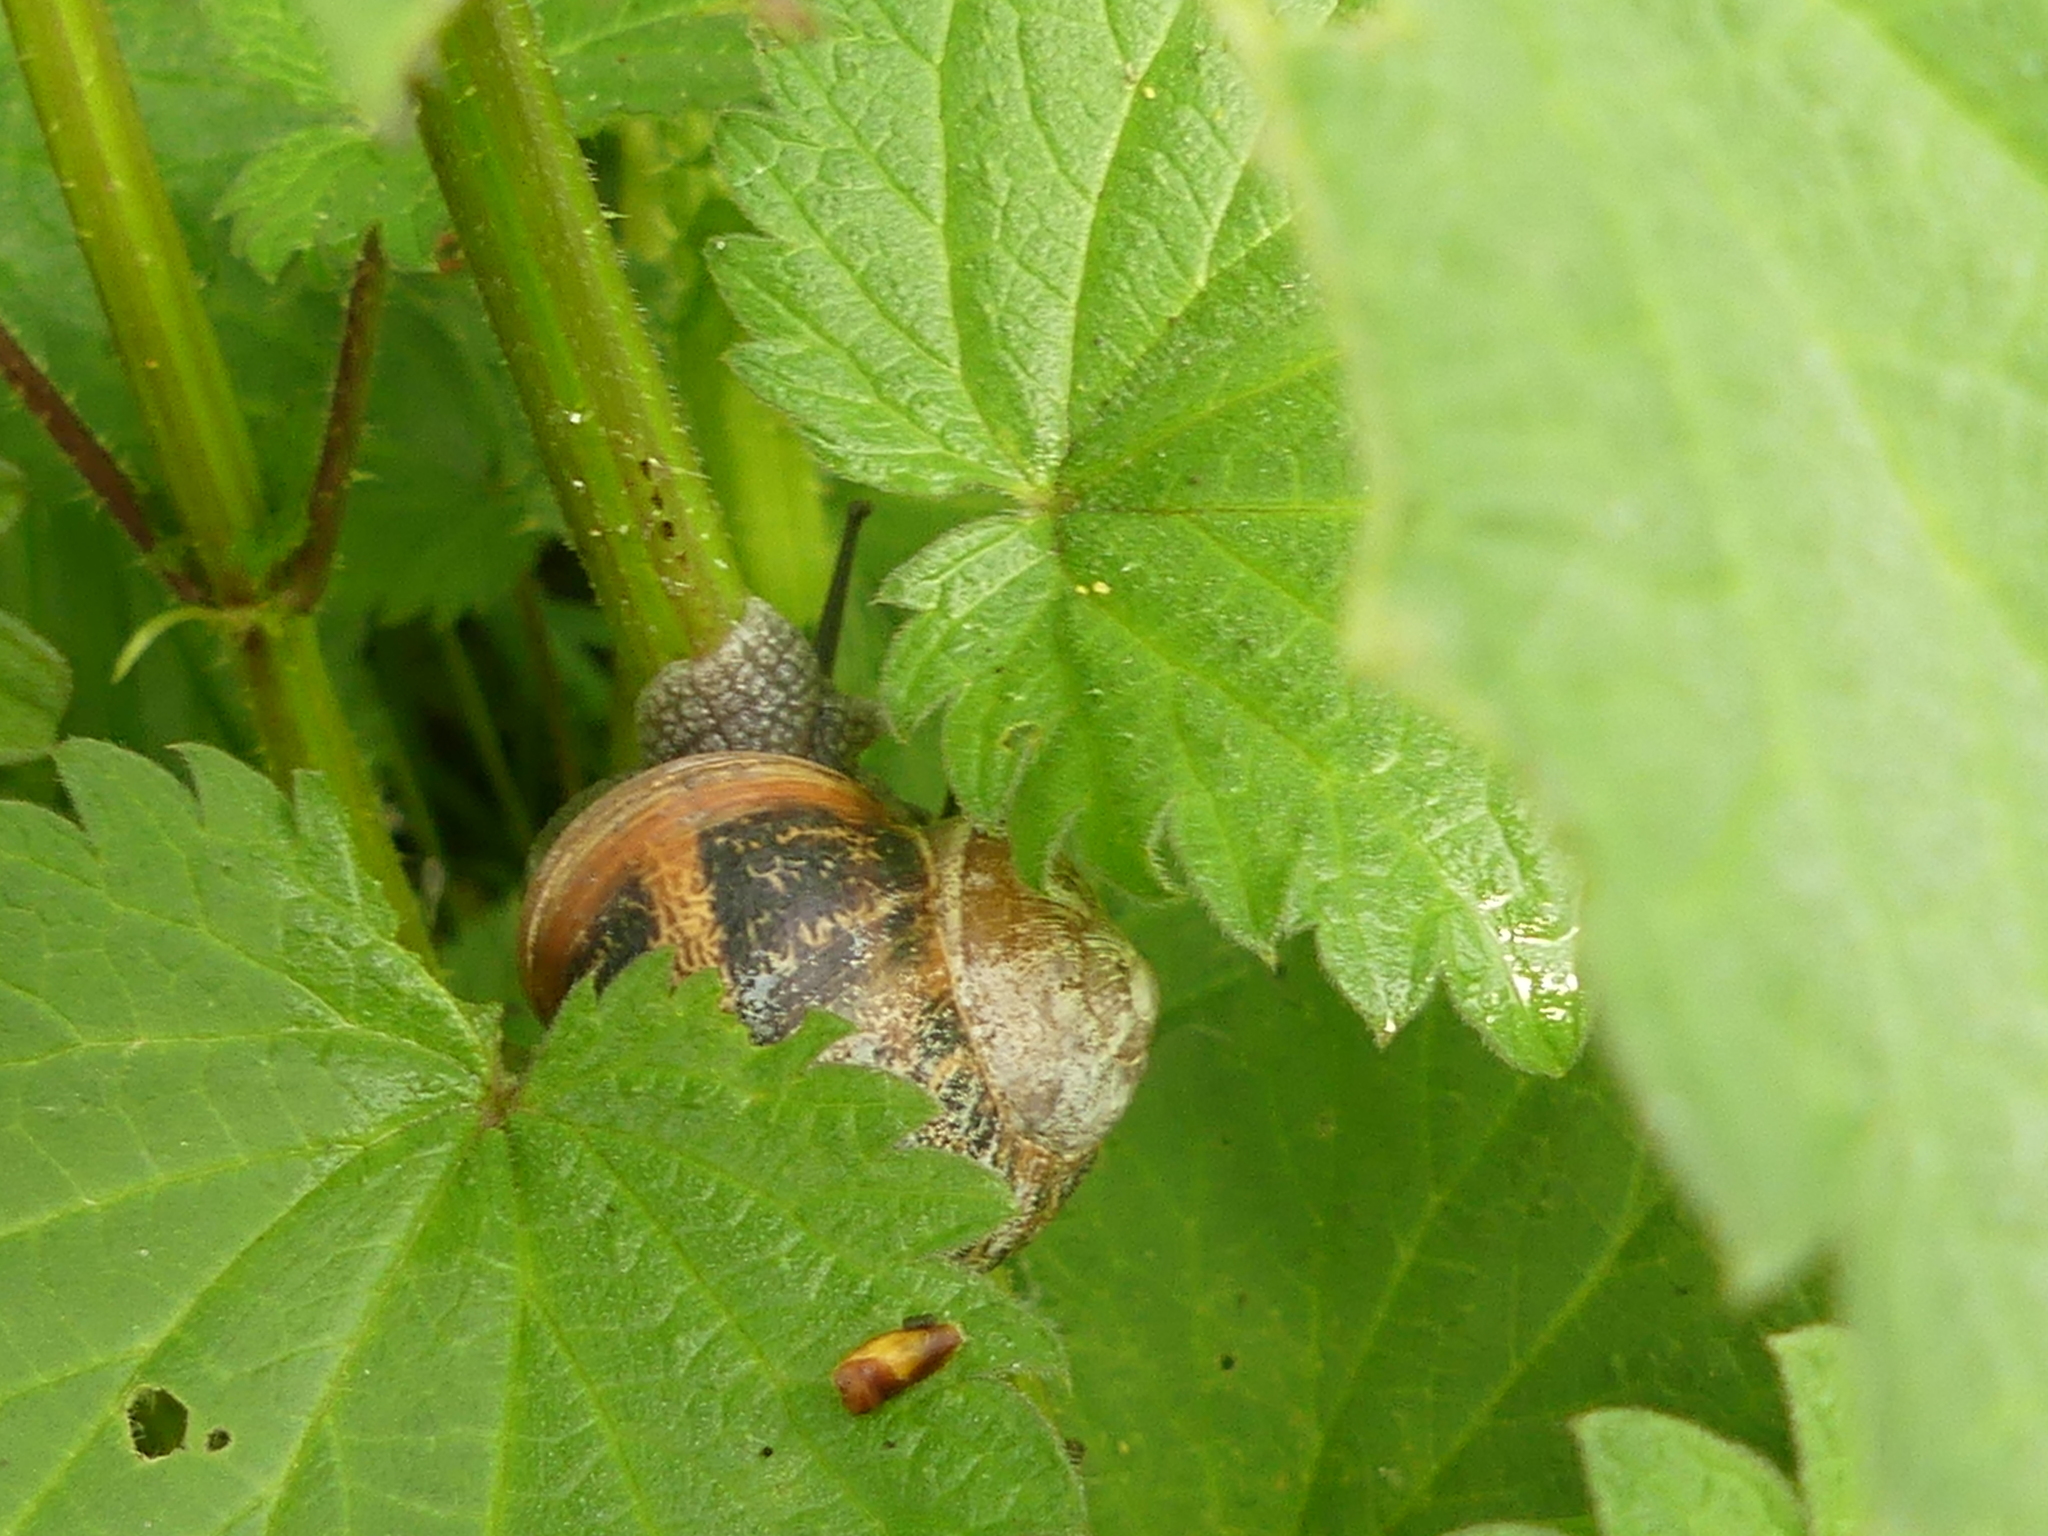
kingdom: Animalia
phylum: Mollusca
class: Gastropoda
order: Stylommatophora
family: Helicidae
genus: Cornu
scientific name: Cornu aspersum
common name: Brown garden snail
